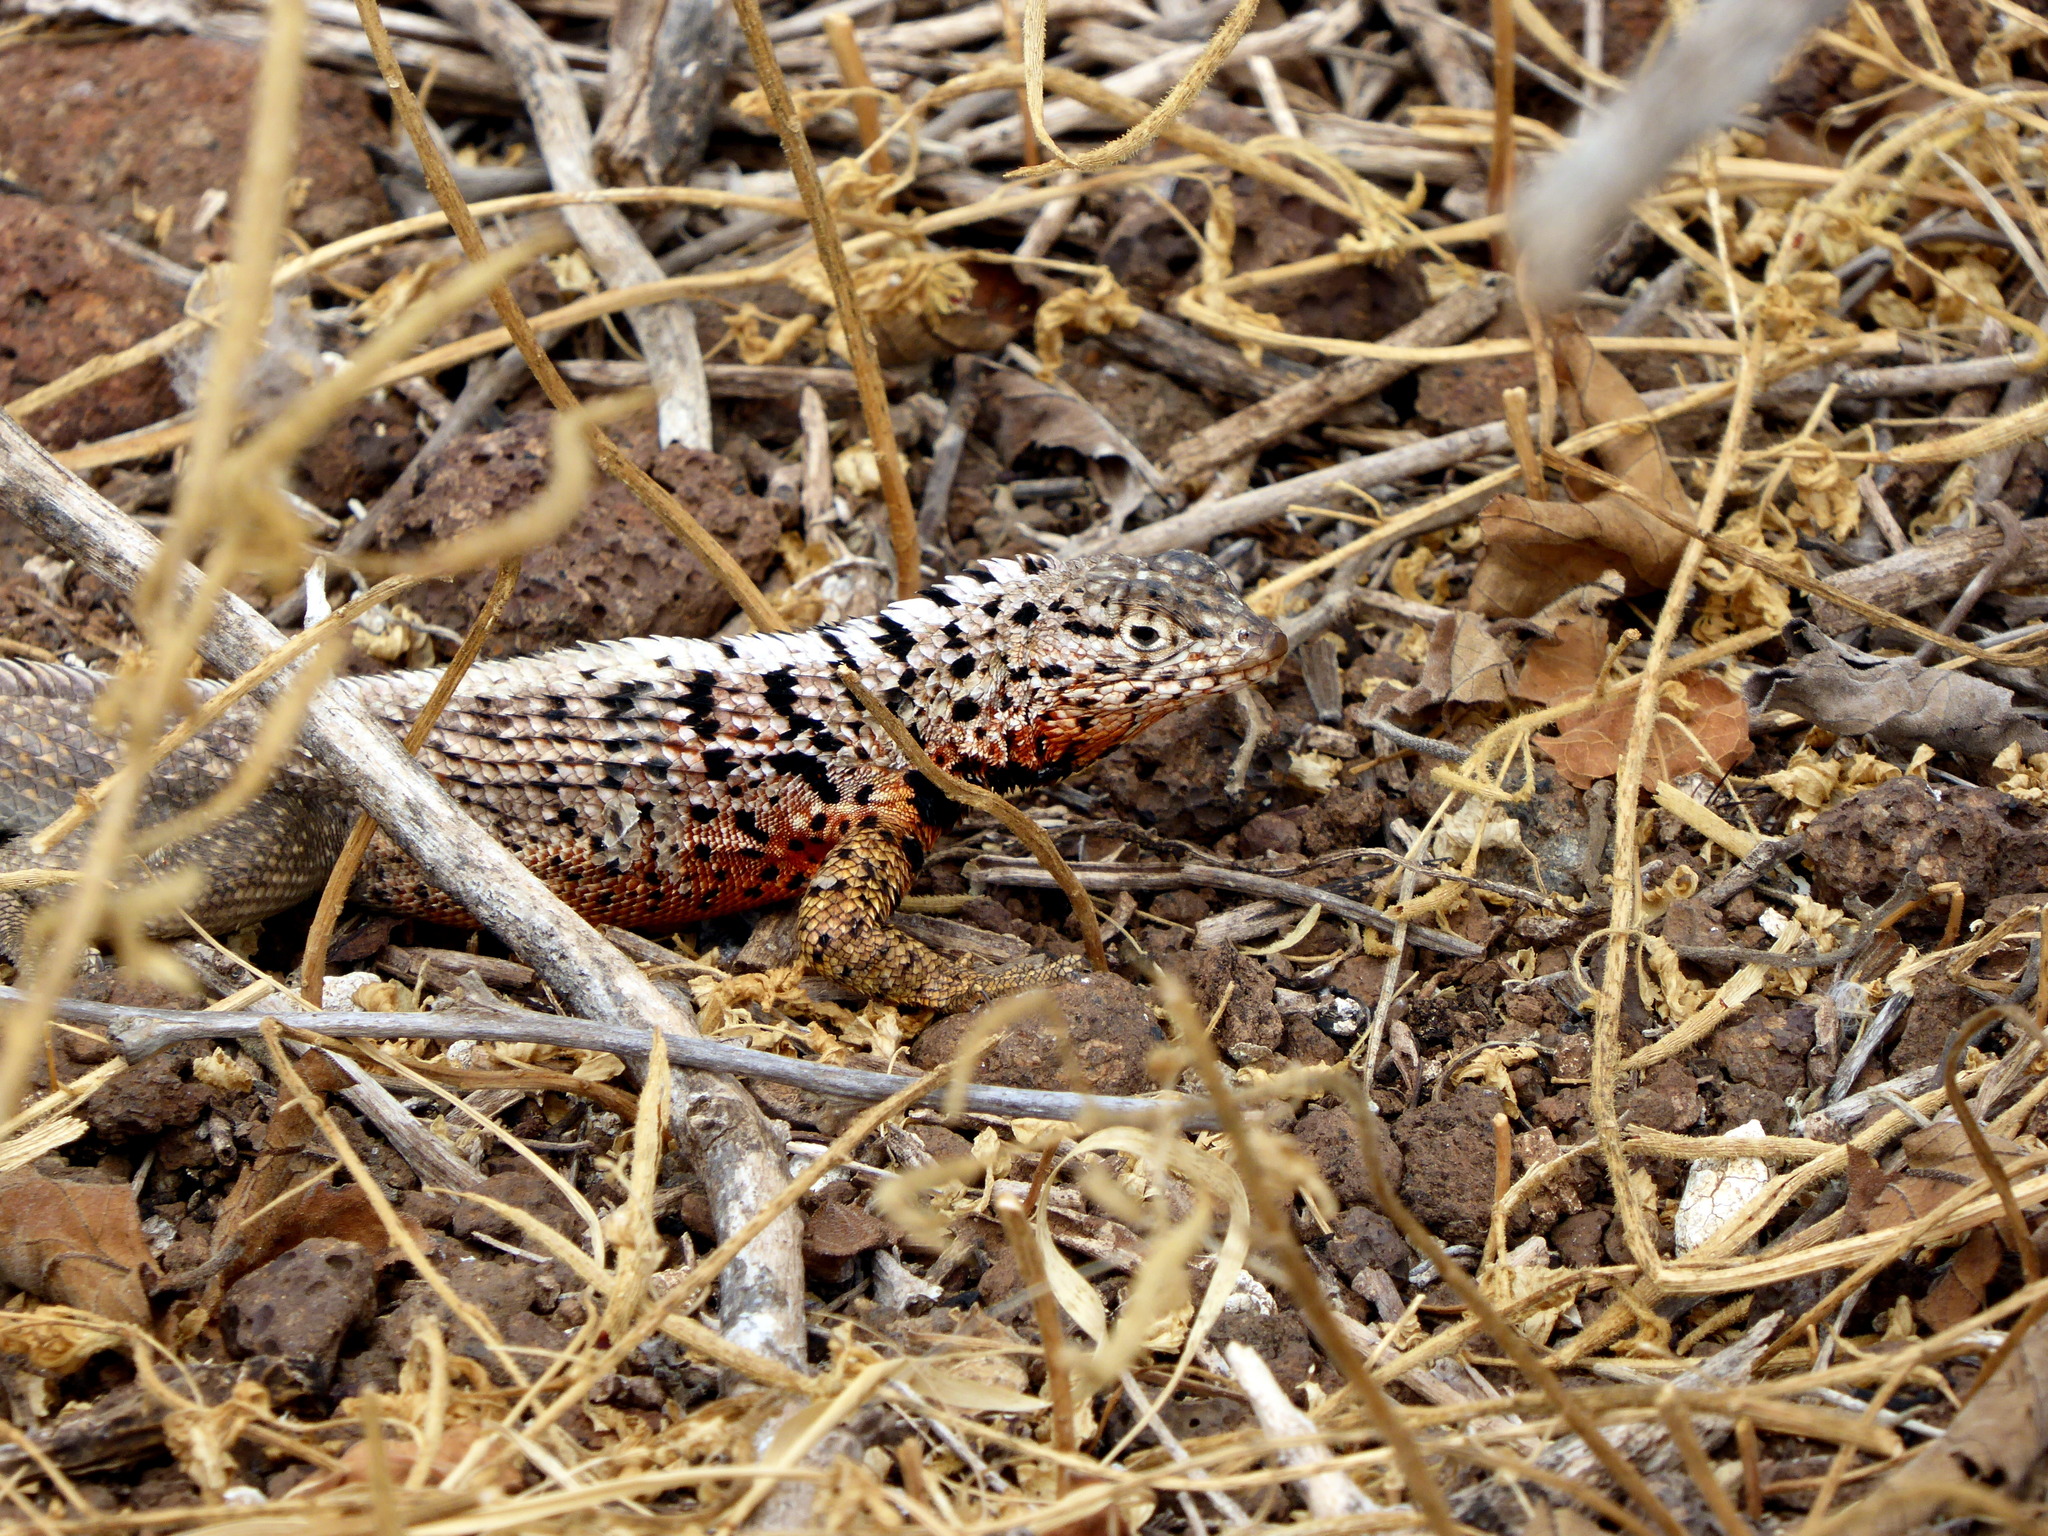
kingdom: Animalia
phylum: Chordata
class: Squamata
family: Tropiduridae
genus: Microlophus
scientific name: Microlophus indefatigabilis
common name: Galapagos lava lizard
